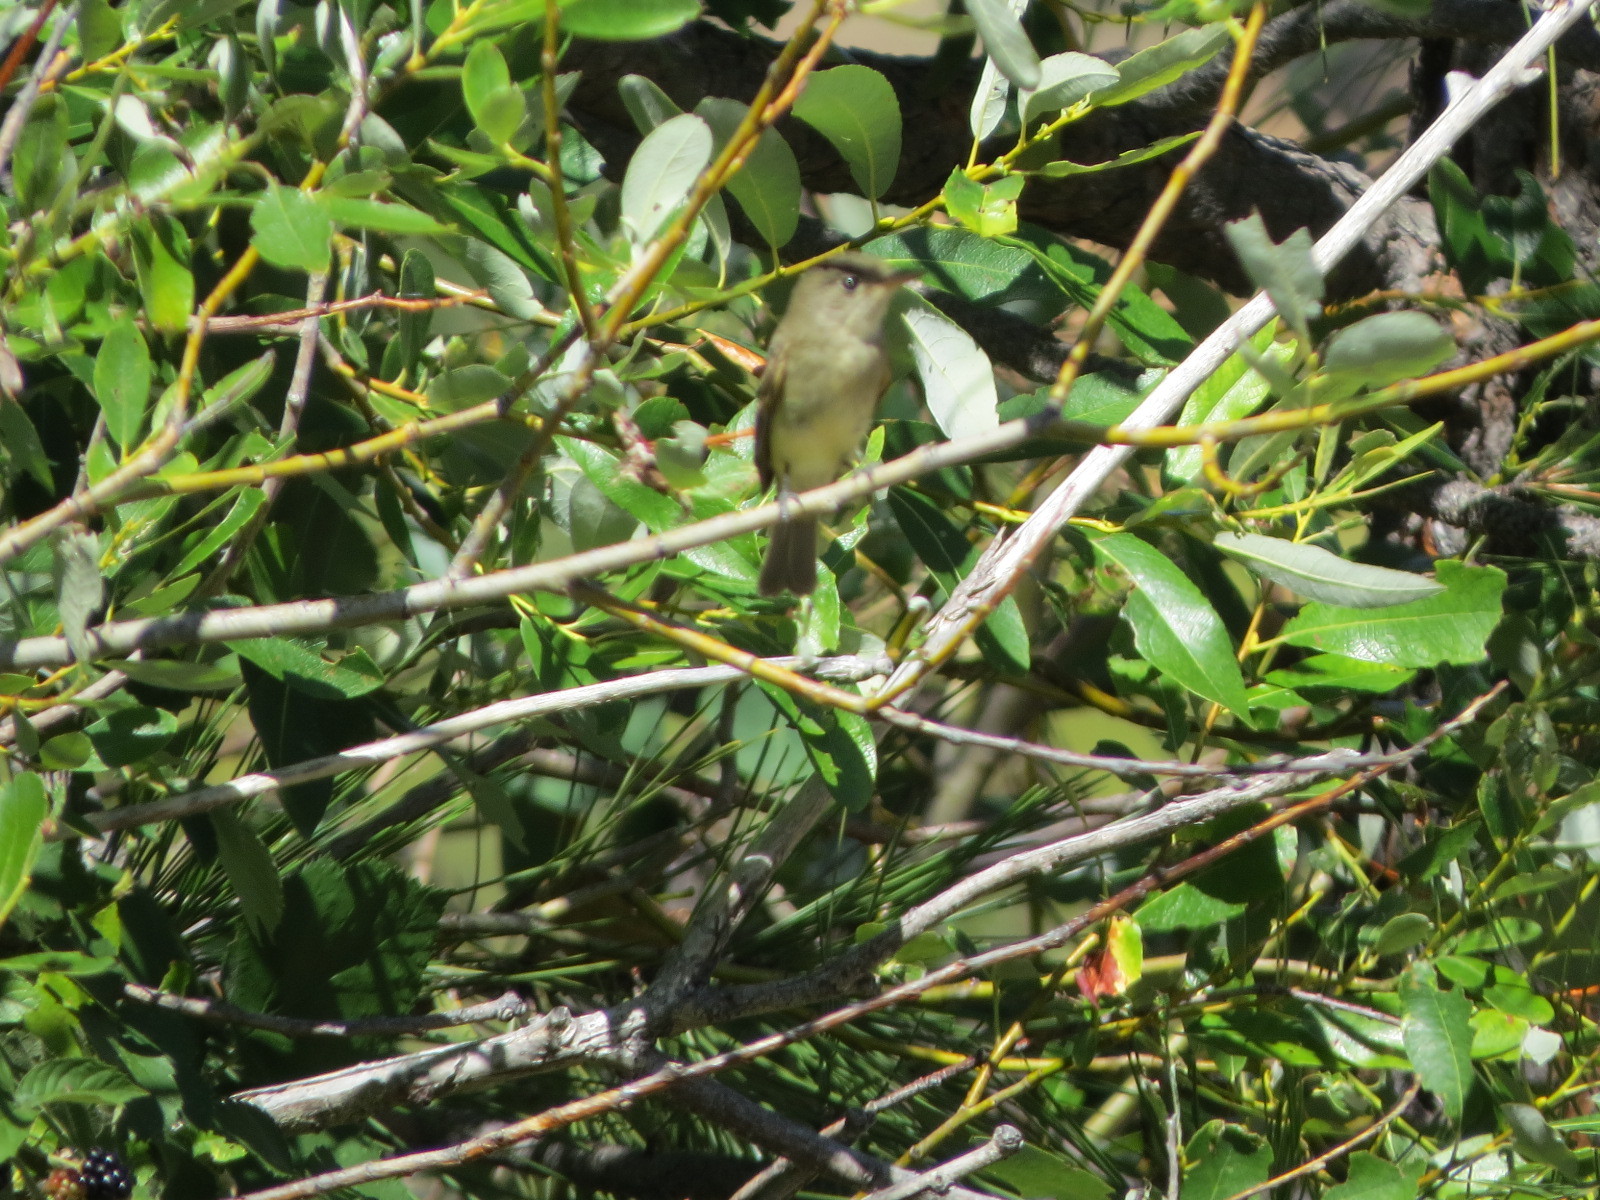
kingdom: Animalia
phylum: Chordata
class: Aves
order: Passeriformes
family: Tyrannidae
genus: Empidonax
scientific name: Empidonax traillii
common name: Willow flycatcher
